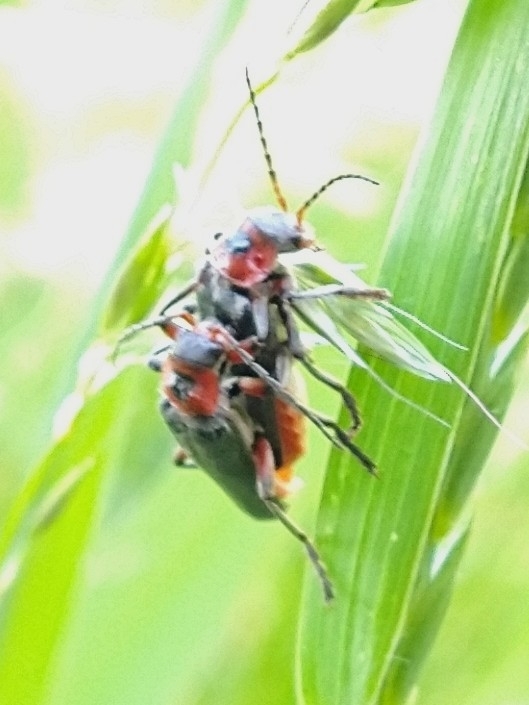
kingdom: Animalia
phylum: Arthropoda
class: Insecta
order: Coleoptera
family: Cantharidae
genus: Cantharis
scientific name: Cantharis rustica
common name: Soldier beetle
